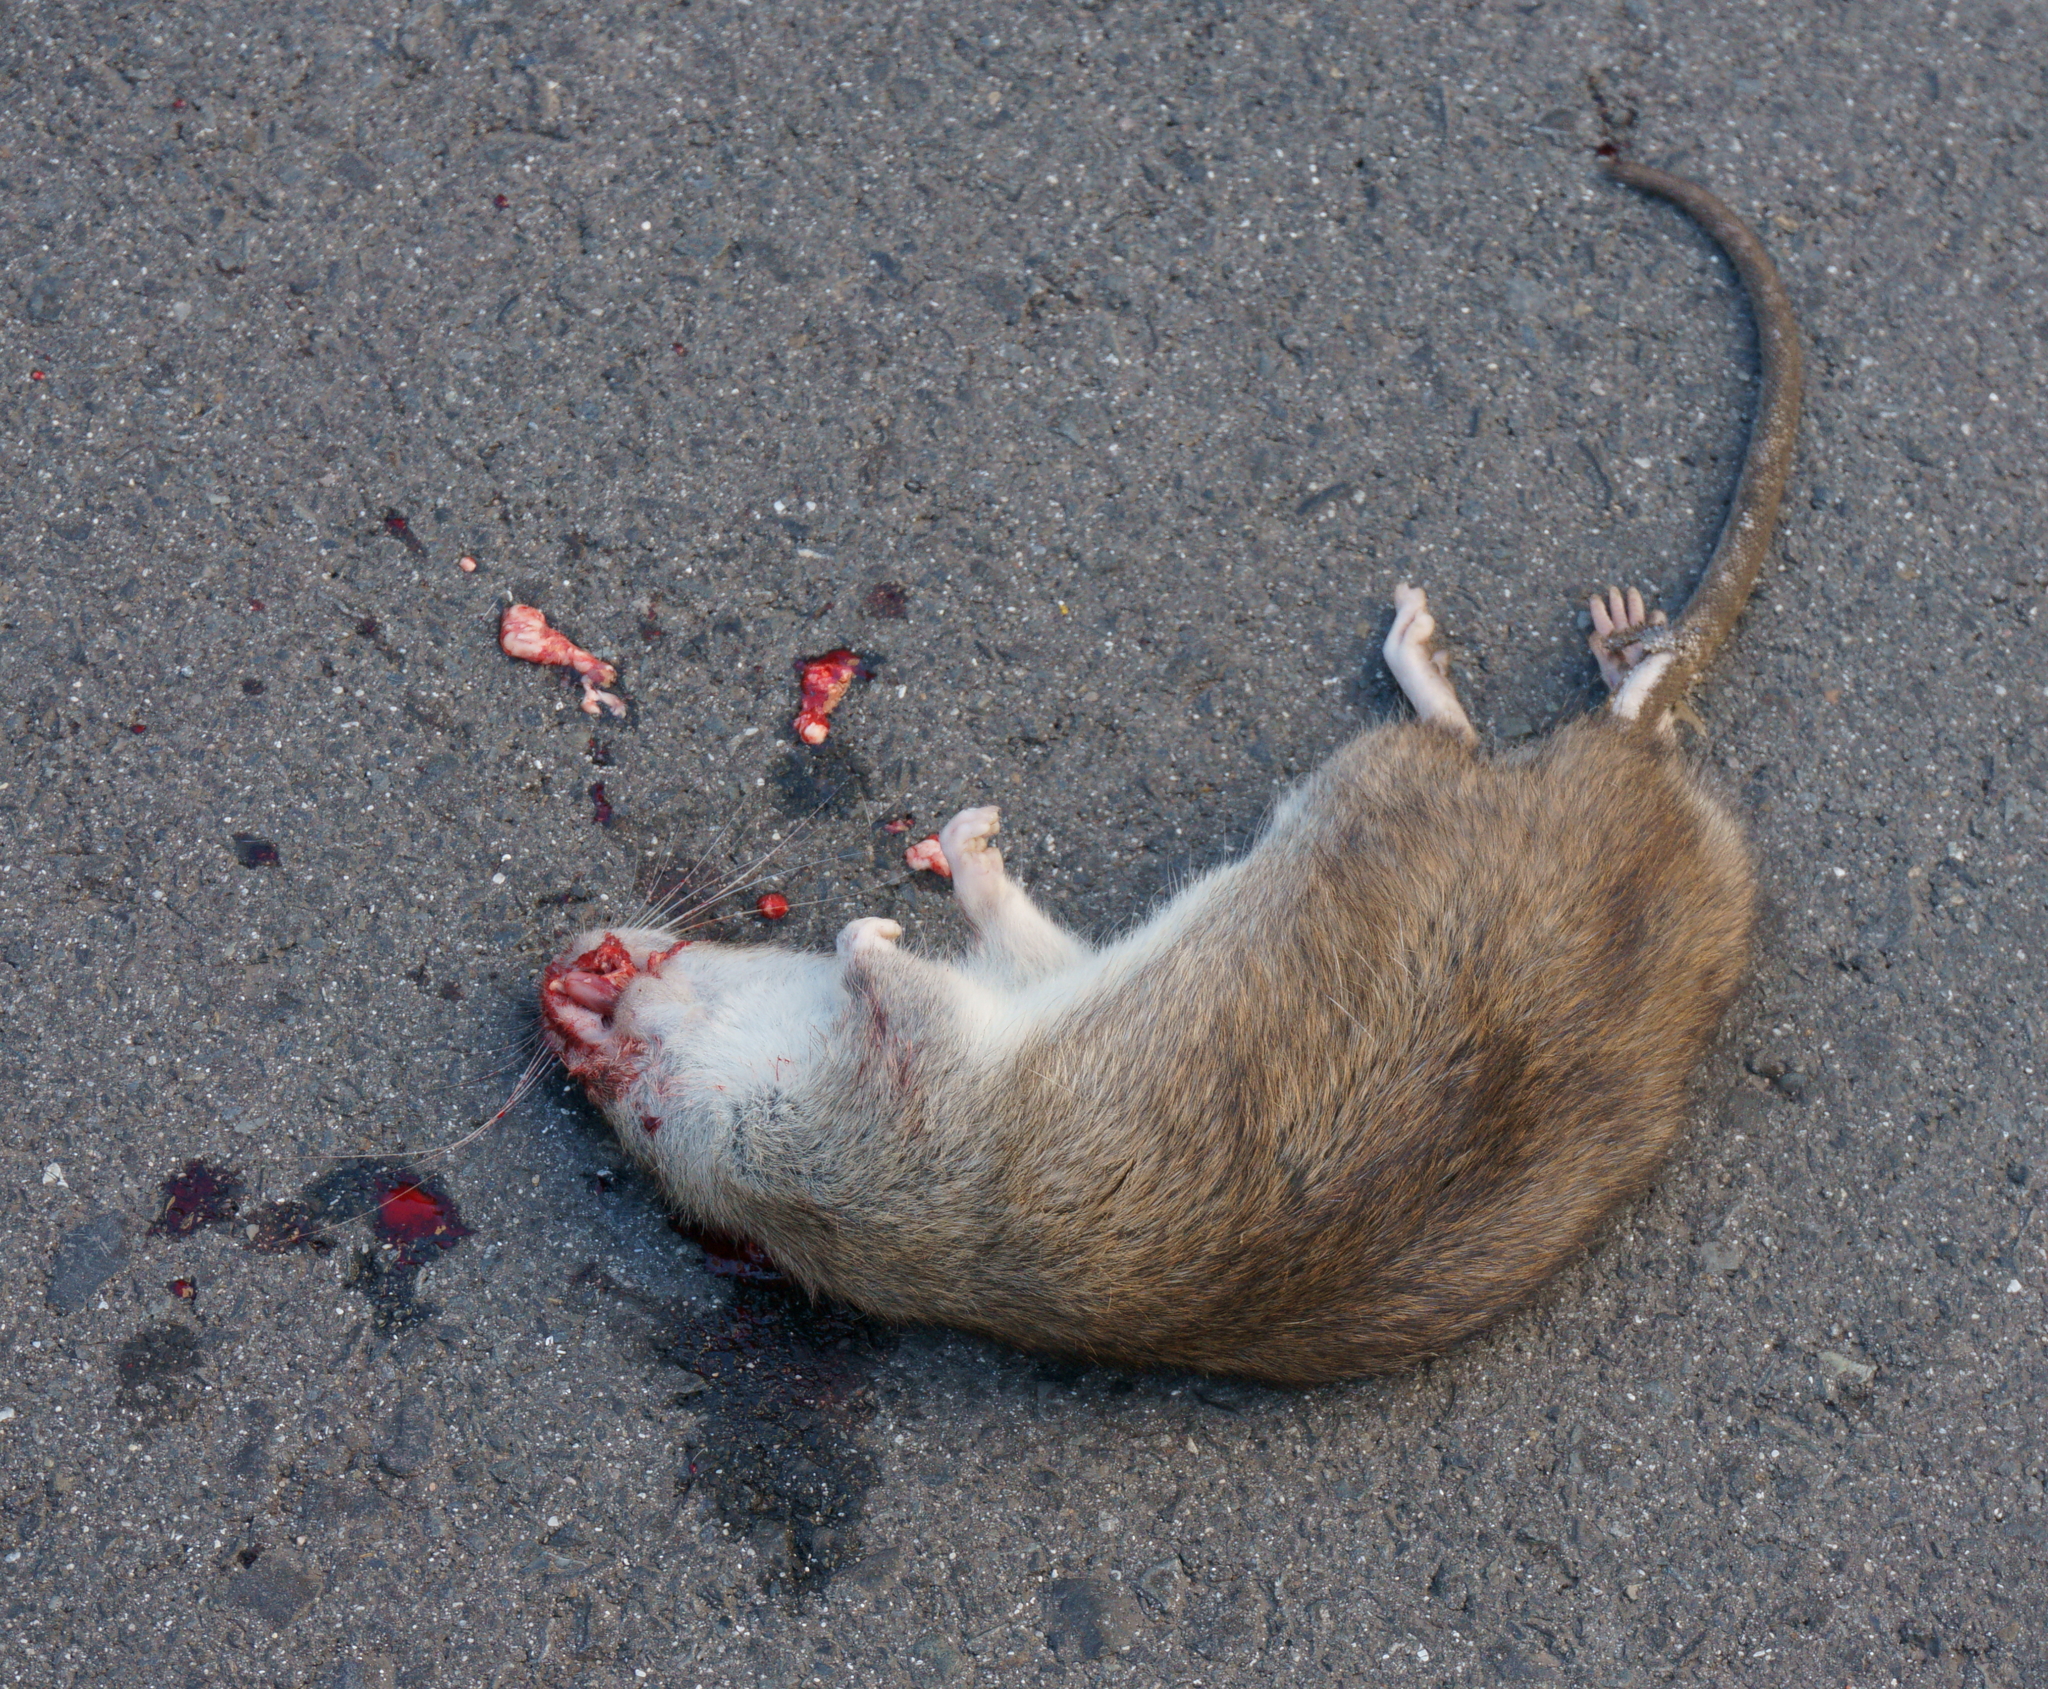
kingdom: Animalia
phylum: Chordata
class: Mammalia
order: Rodentia
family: Muridae
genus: Rattus
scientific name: Rattus norvegicus
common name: Brown rat
